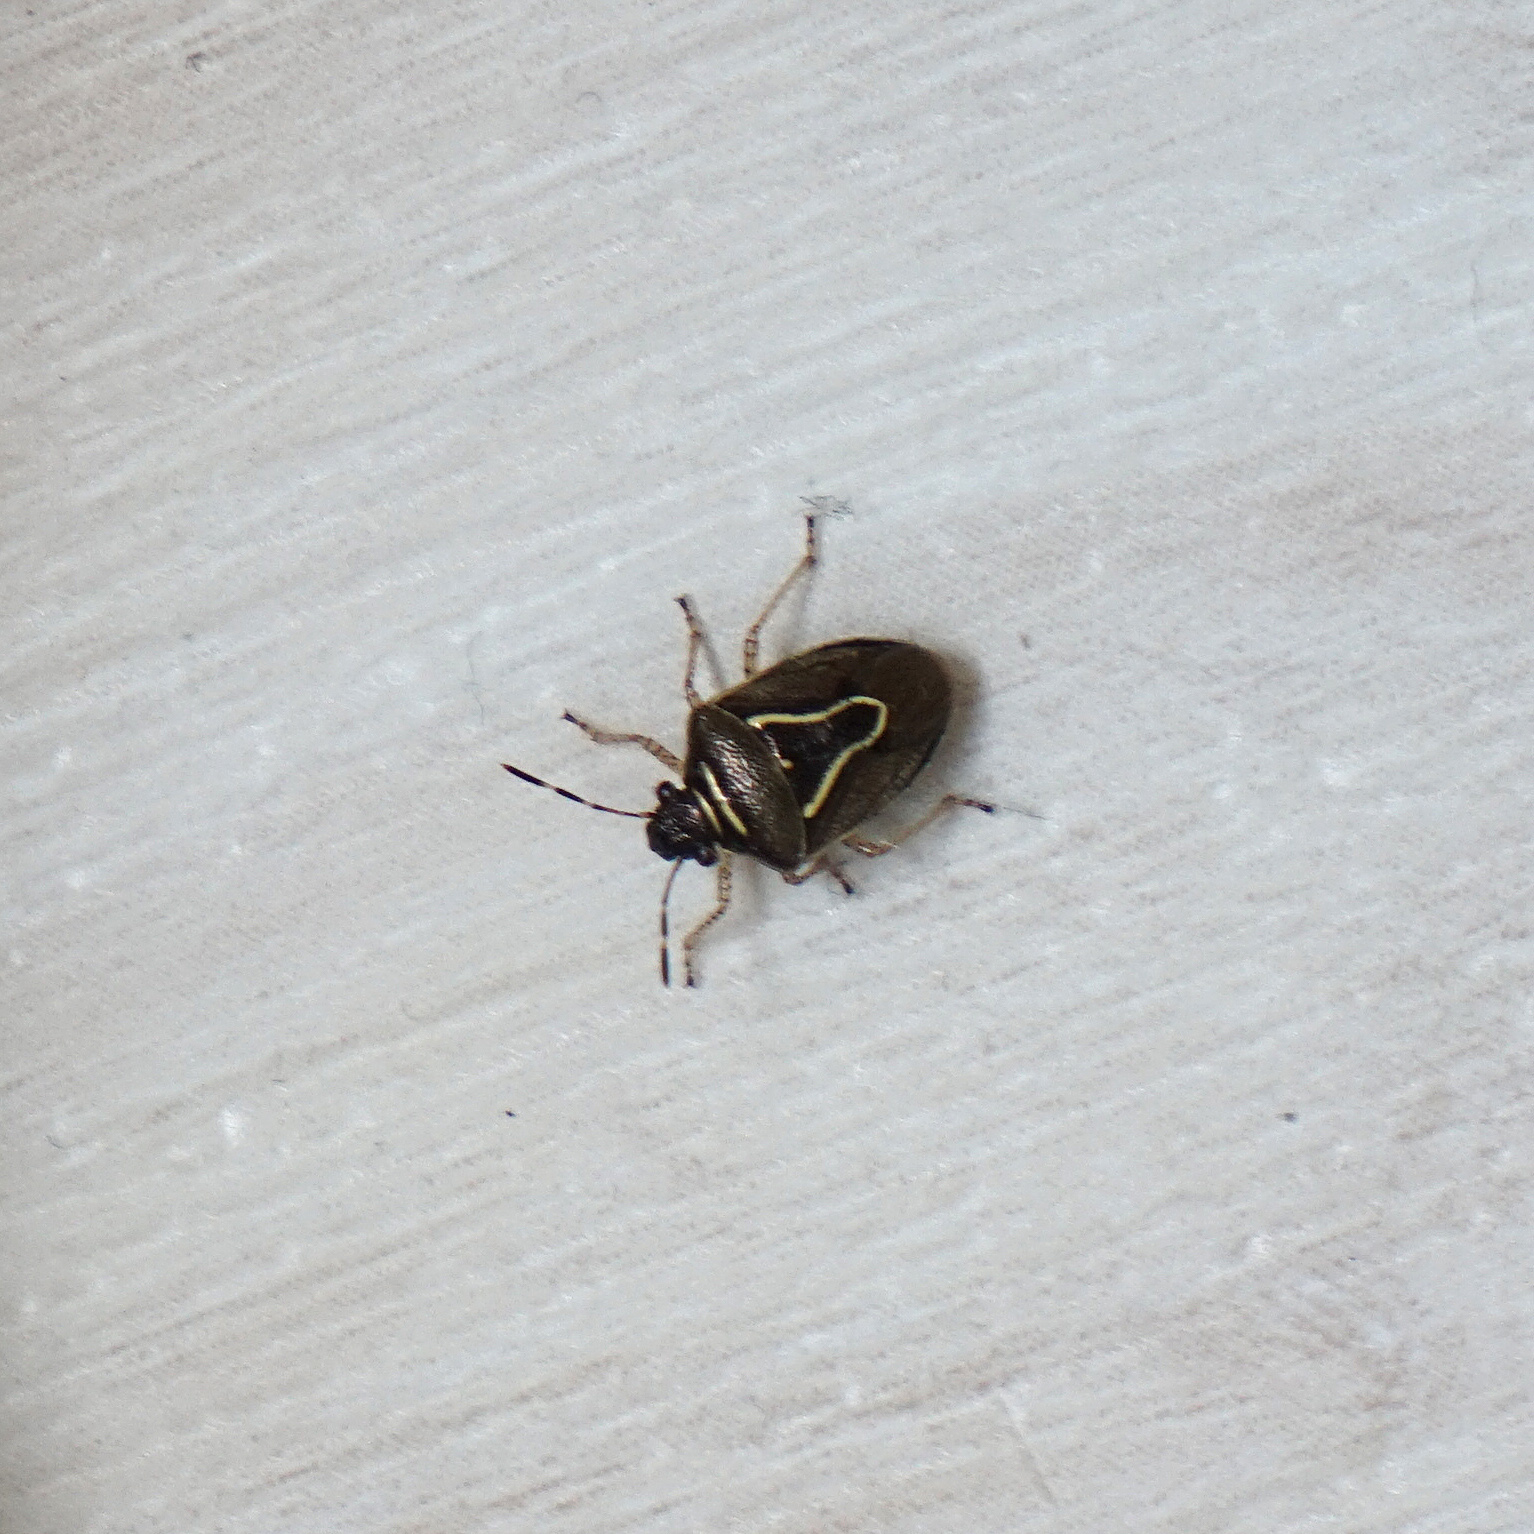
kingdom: Animalia
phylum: Arthropoda
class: Insecta
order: Hemiptera
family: Pentatomidae
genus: Mormidea
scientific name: Mormidea lugens
